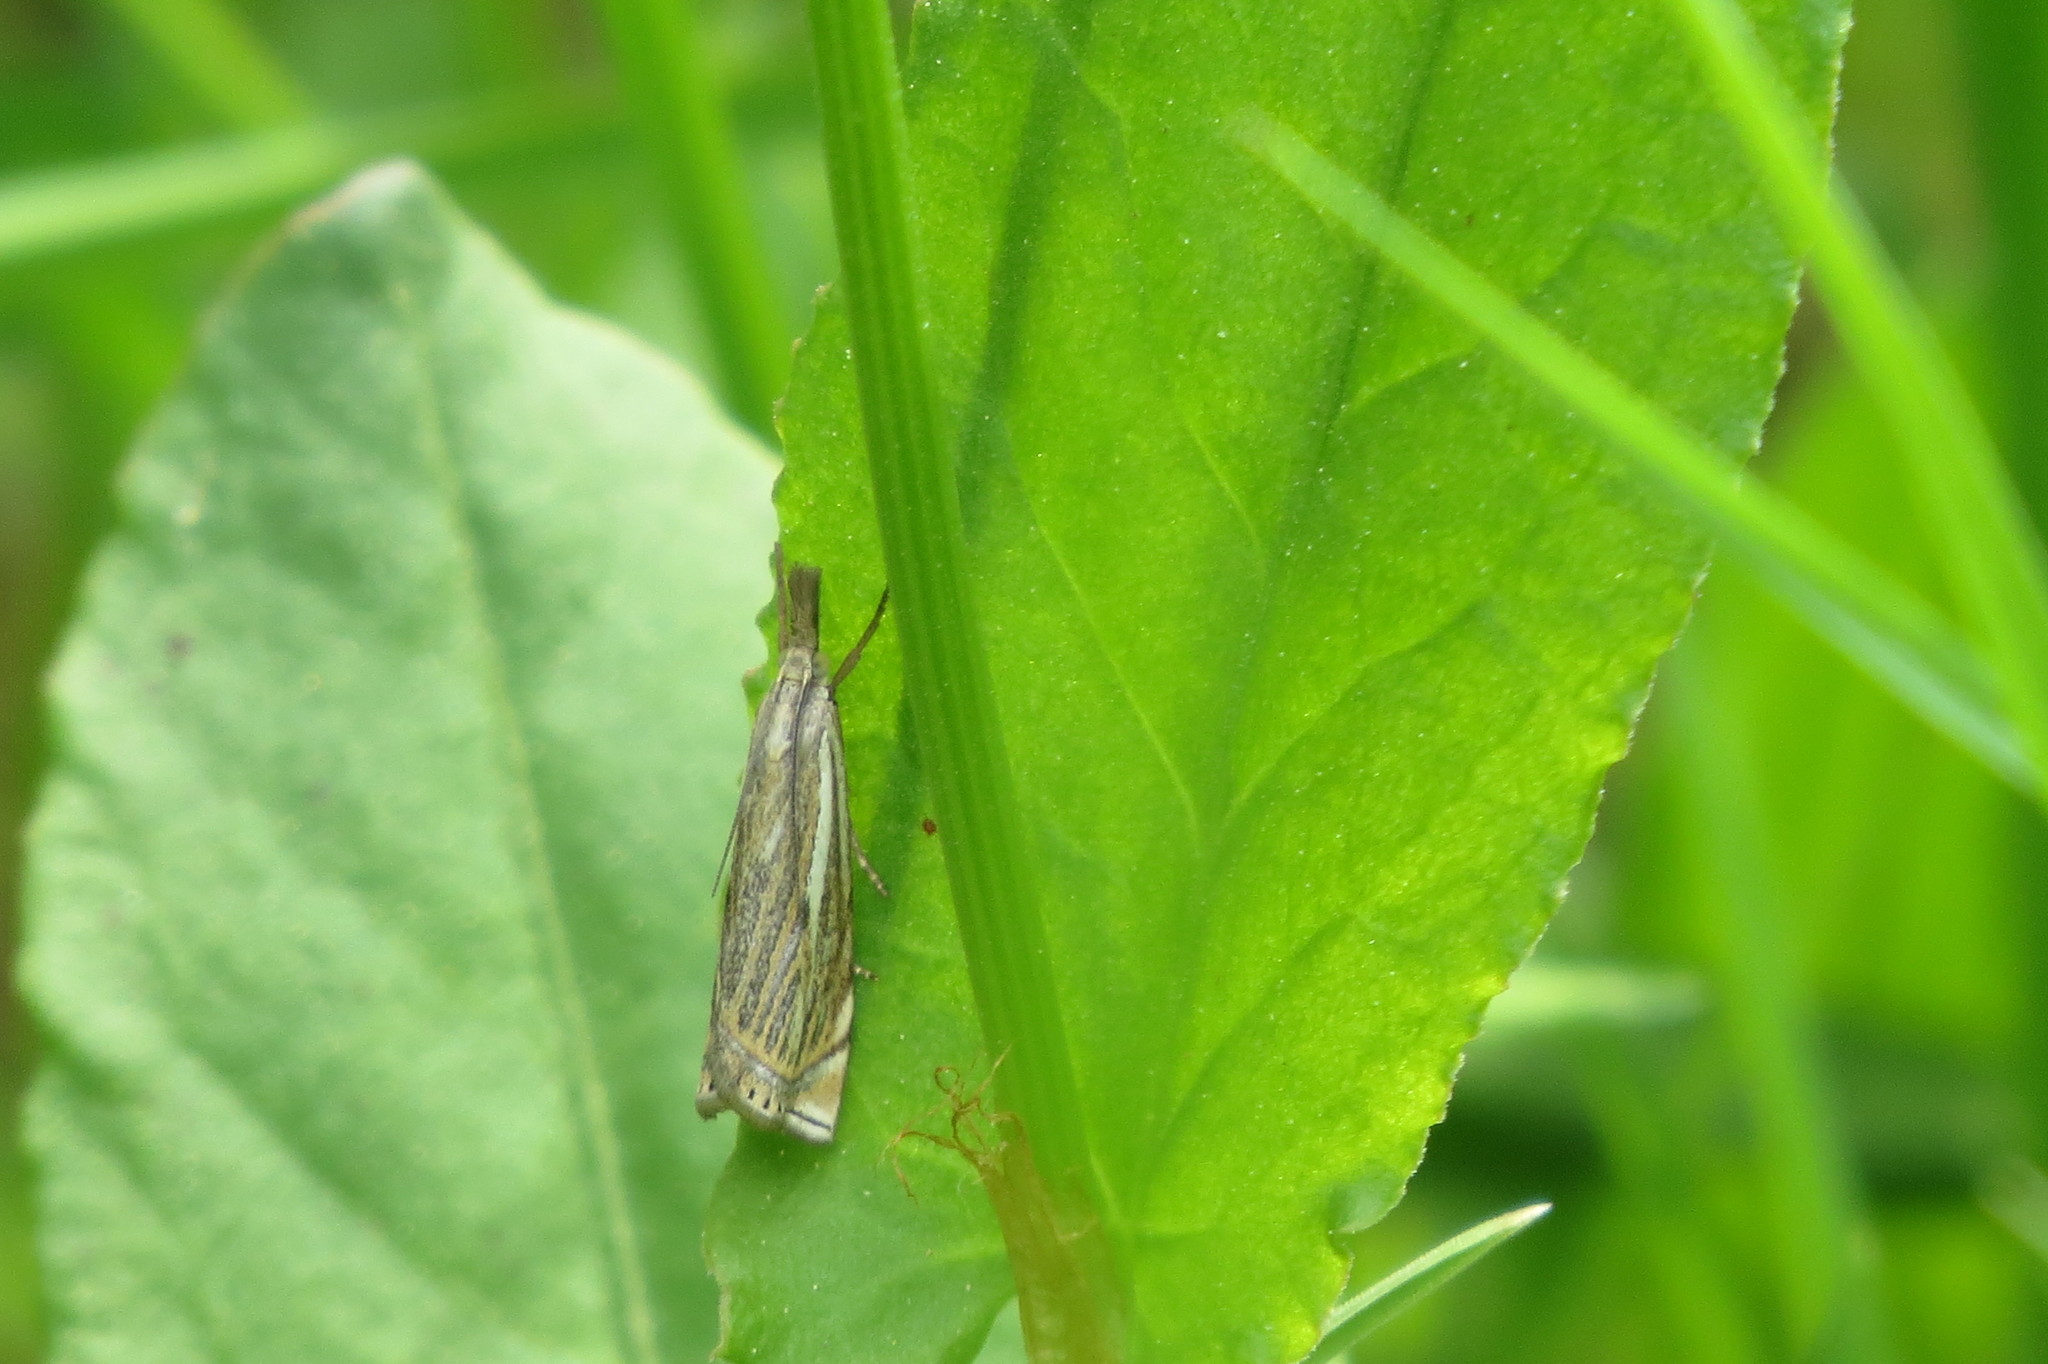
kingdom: Animalia
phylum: Arthropoda
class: Insecta
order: Lepidoptera
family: Crambidae
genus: Crambus
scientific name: Crambus nemorella
